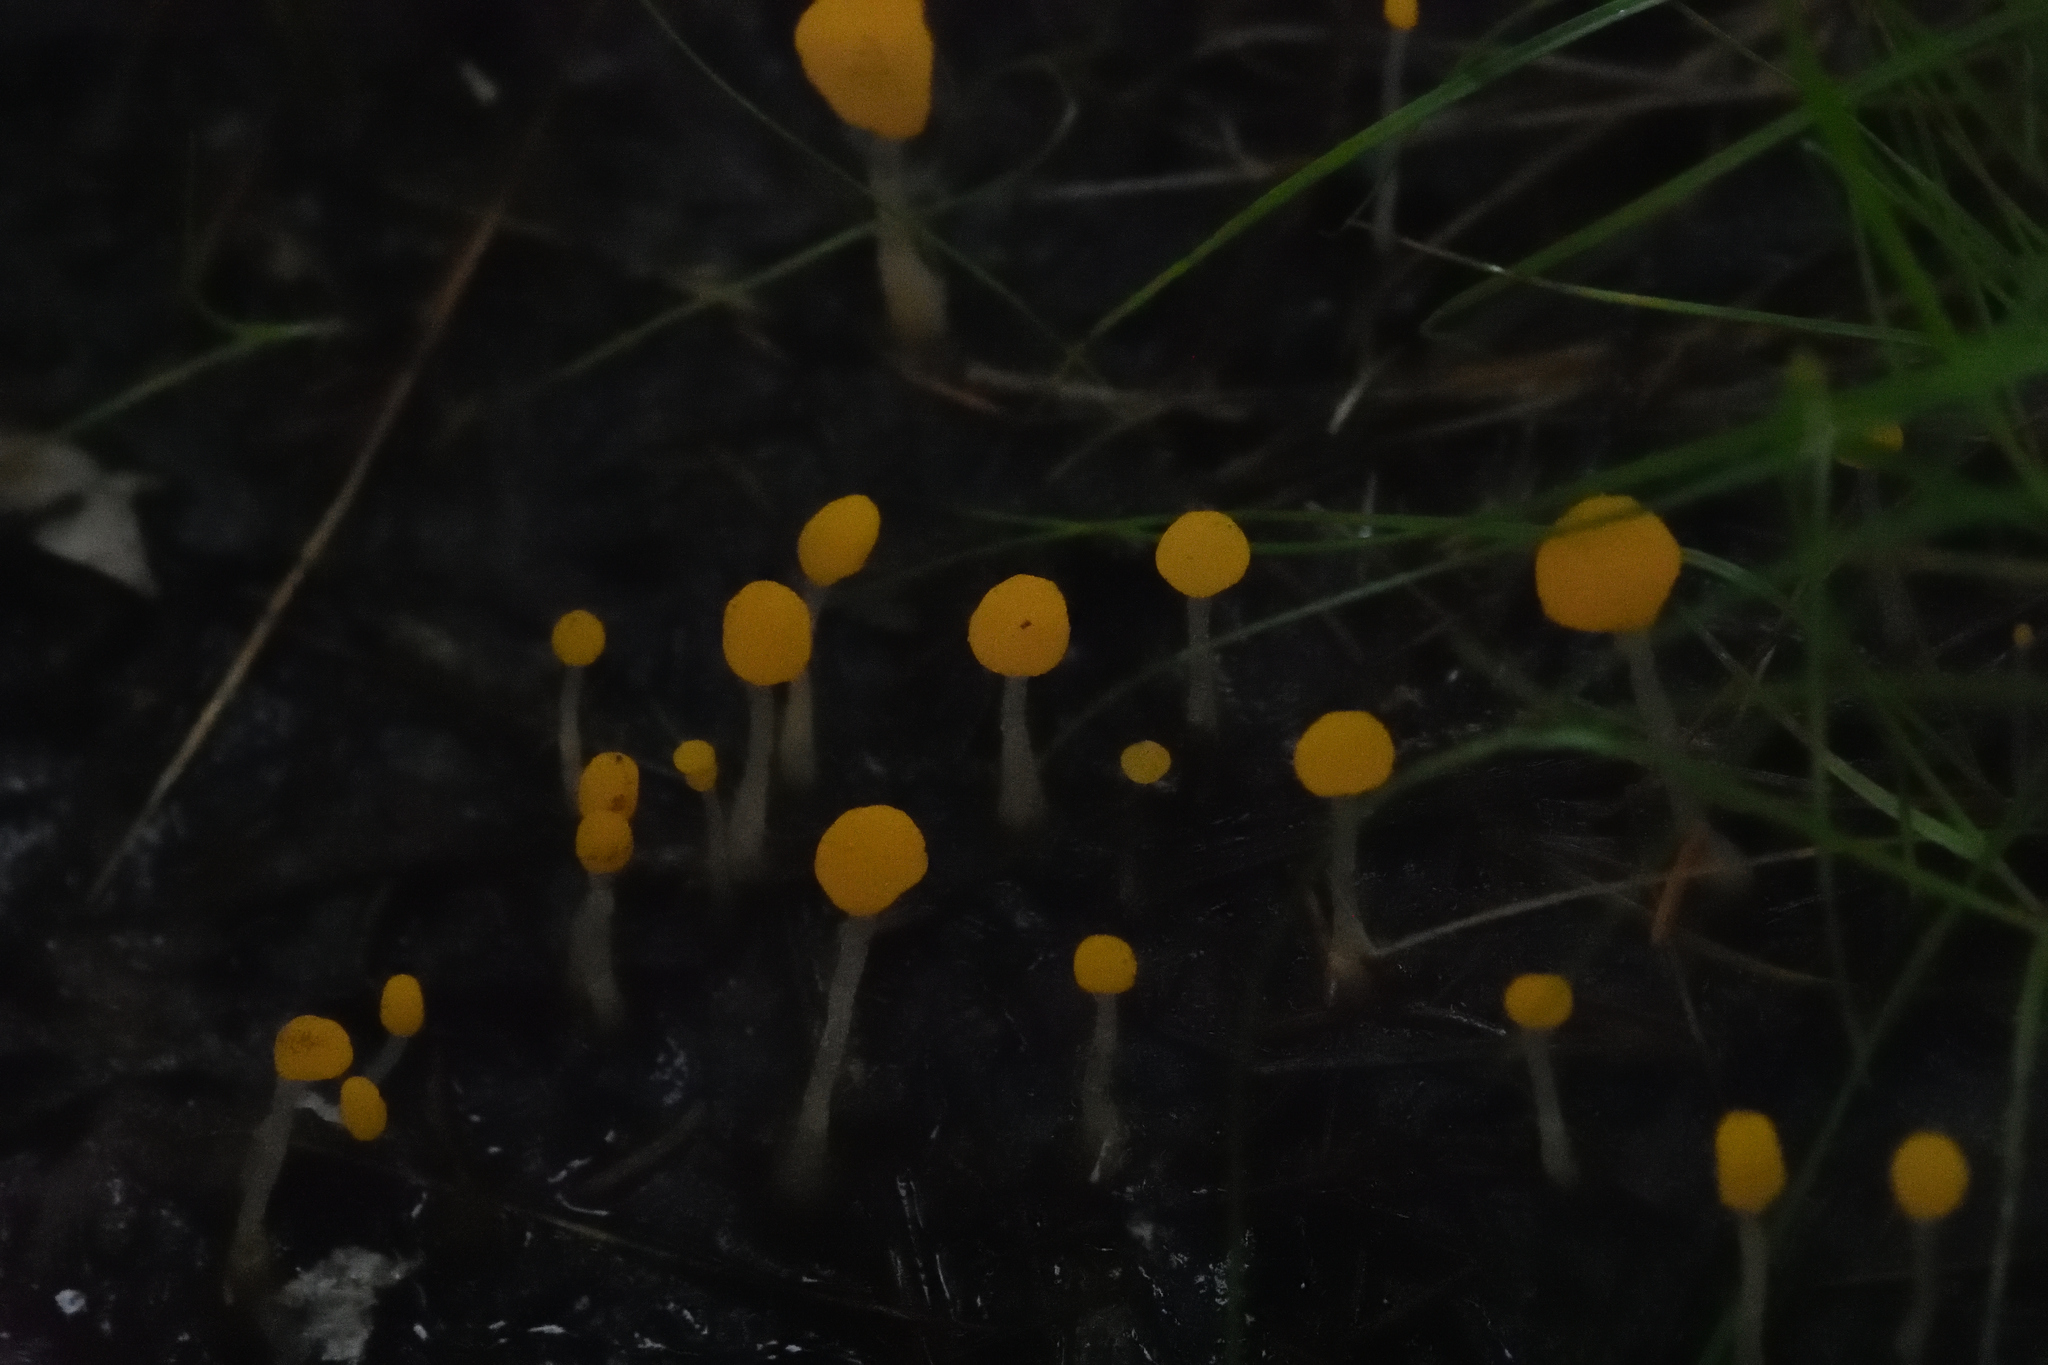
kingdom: Fungi
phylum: Ascomycota
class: Leotiomycetes
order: Helotiales
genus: Mitrula
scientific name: Mitrula
